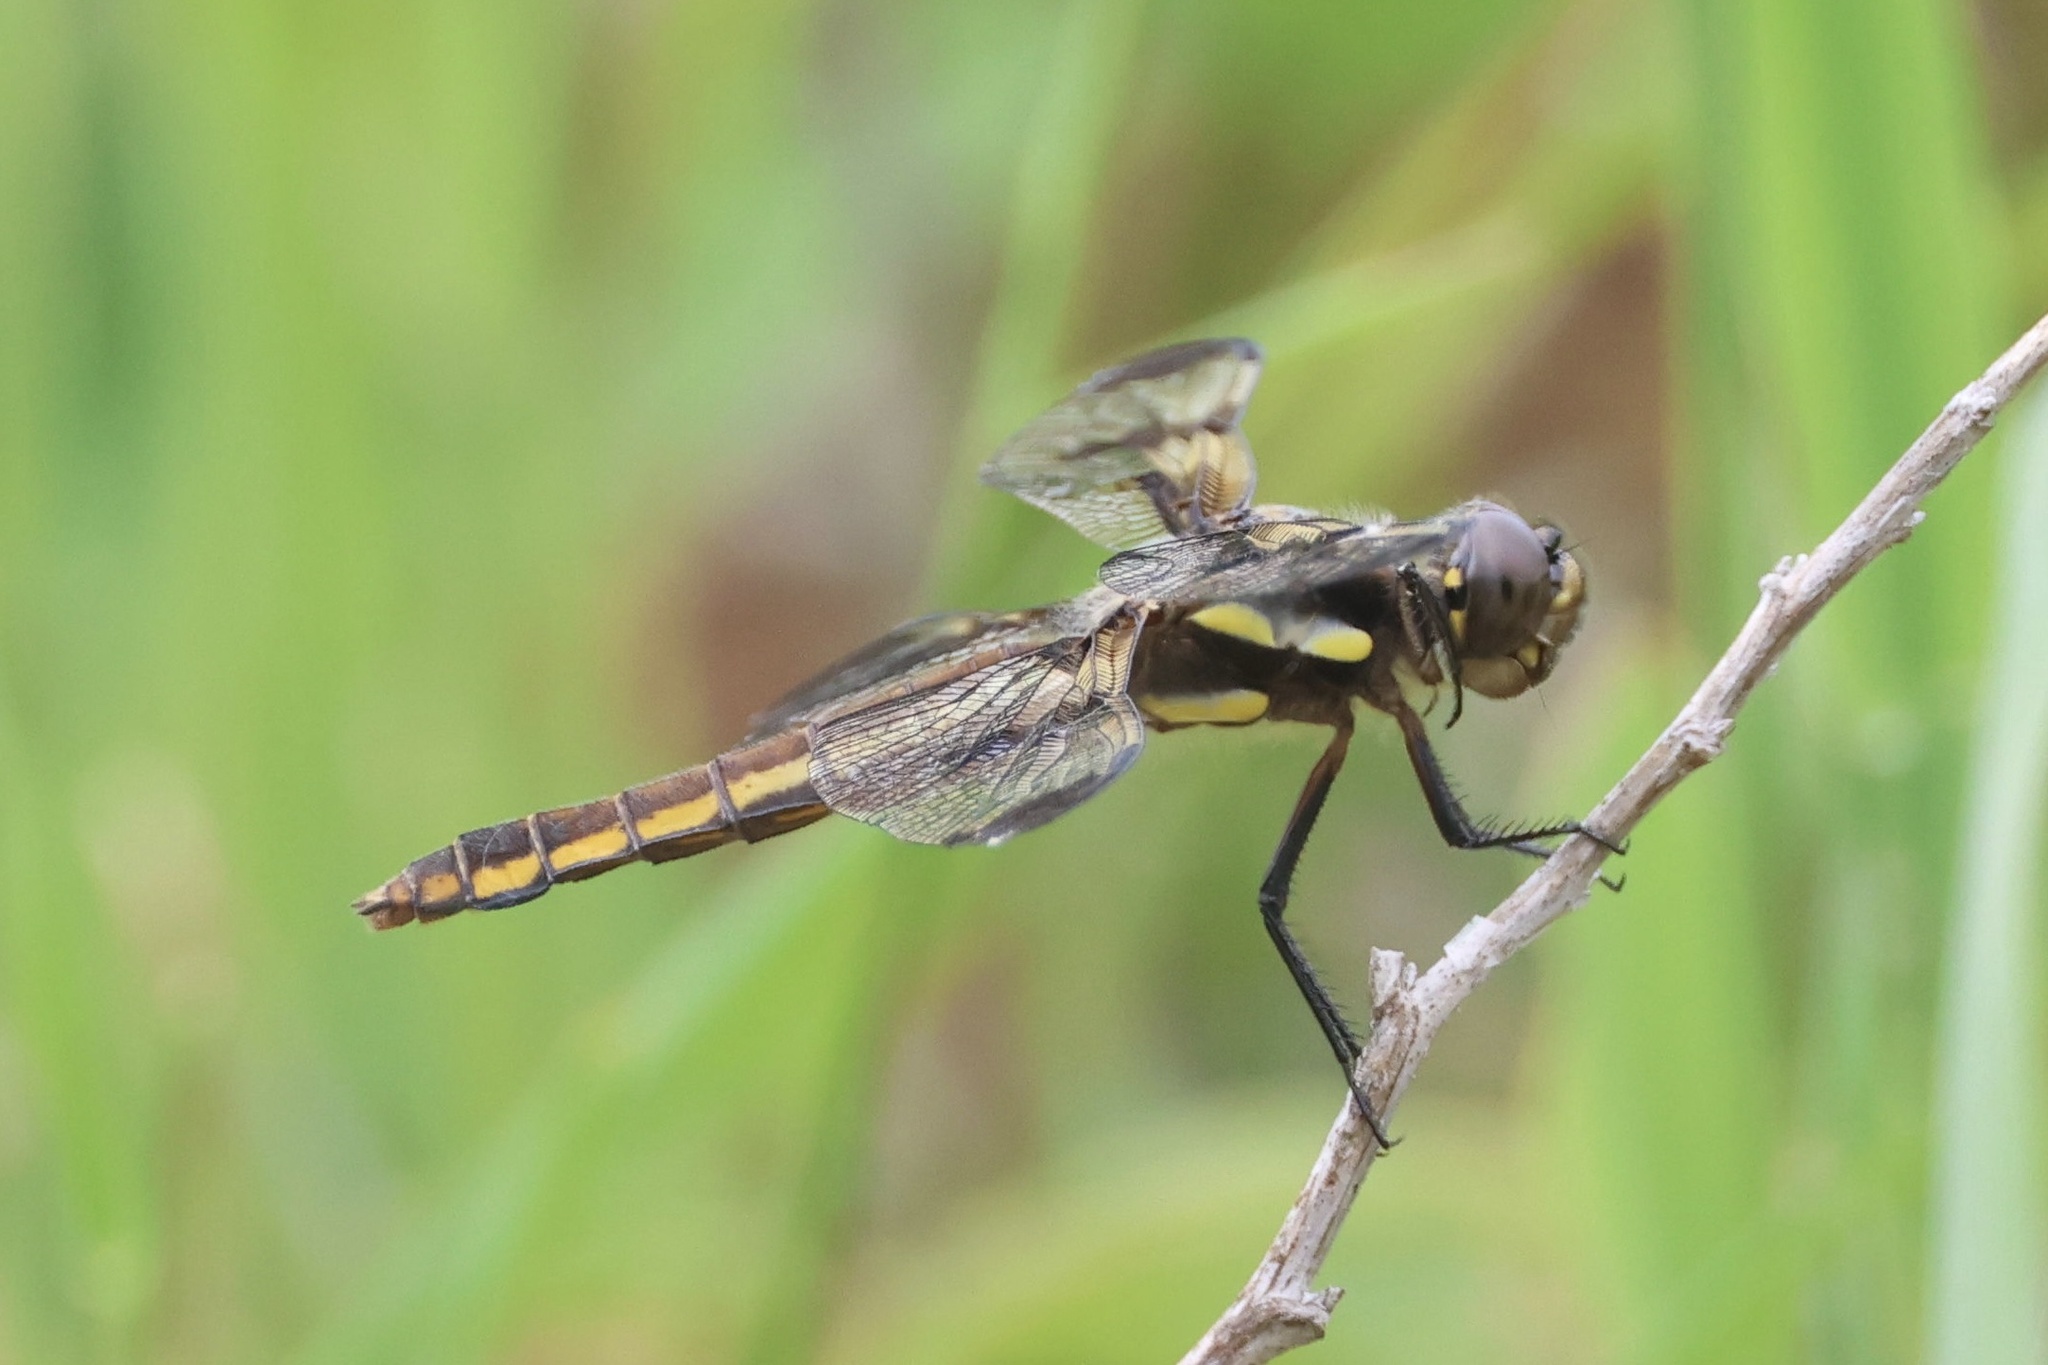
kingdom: Animalia
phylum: Arthropoda
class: Insecta
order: Odonata
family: Libellulidae
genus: Libellula
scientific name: Libellula pulchella
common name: Twelve-spotted skimmer
